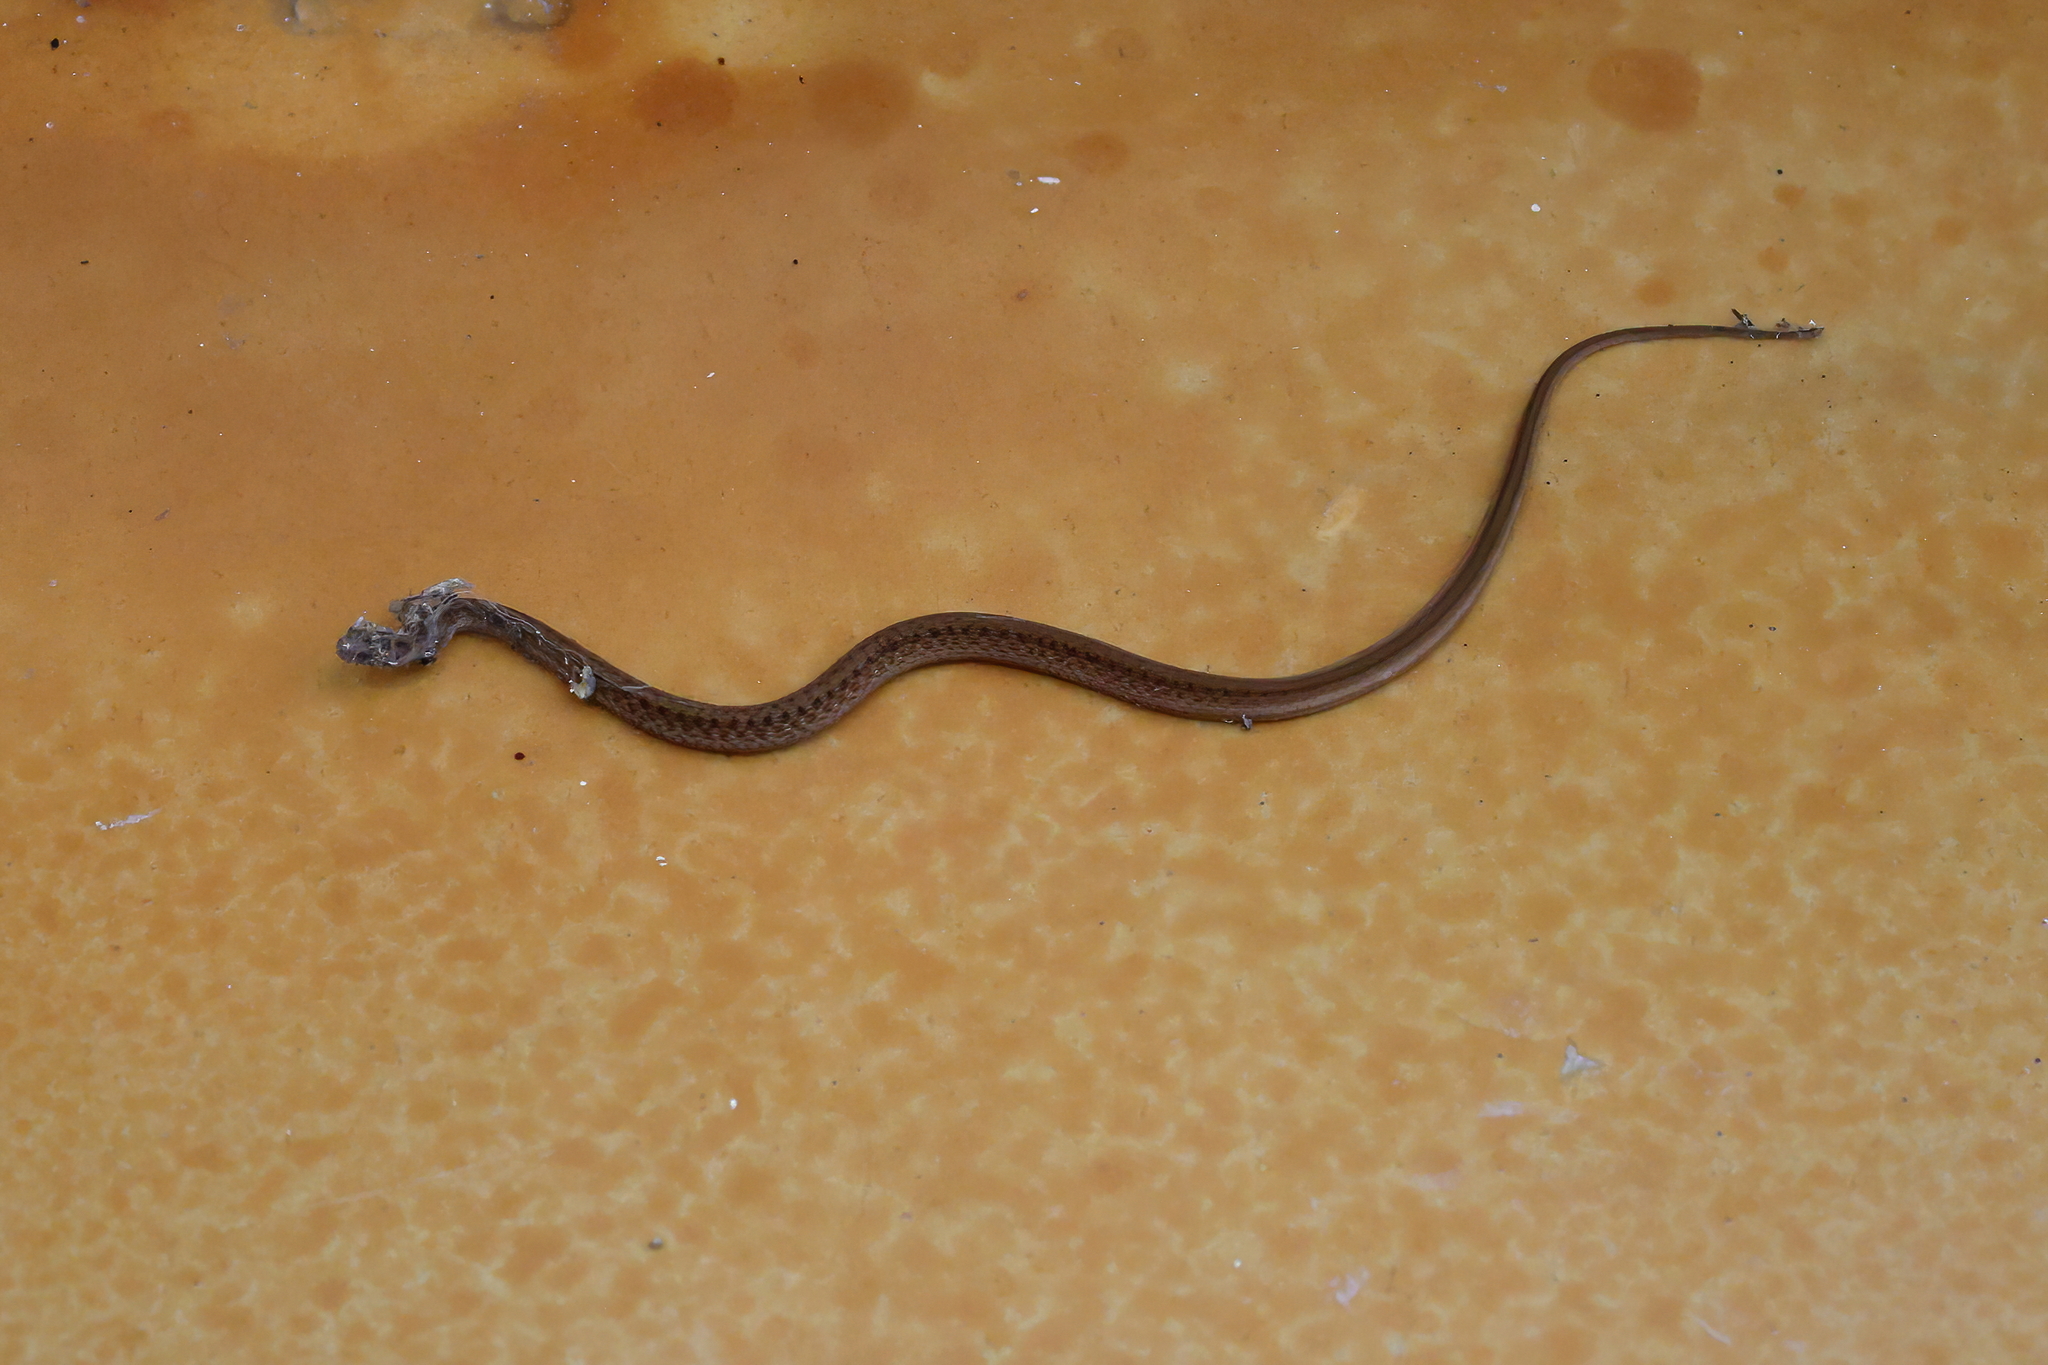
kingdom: Animalia
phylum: Chordata
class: Squamata
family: Colubridae
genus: Storeria
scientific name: Storeria dekayi
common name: (dekay’s) brown snake
